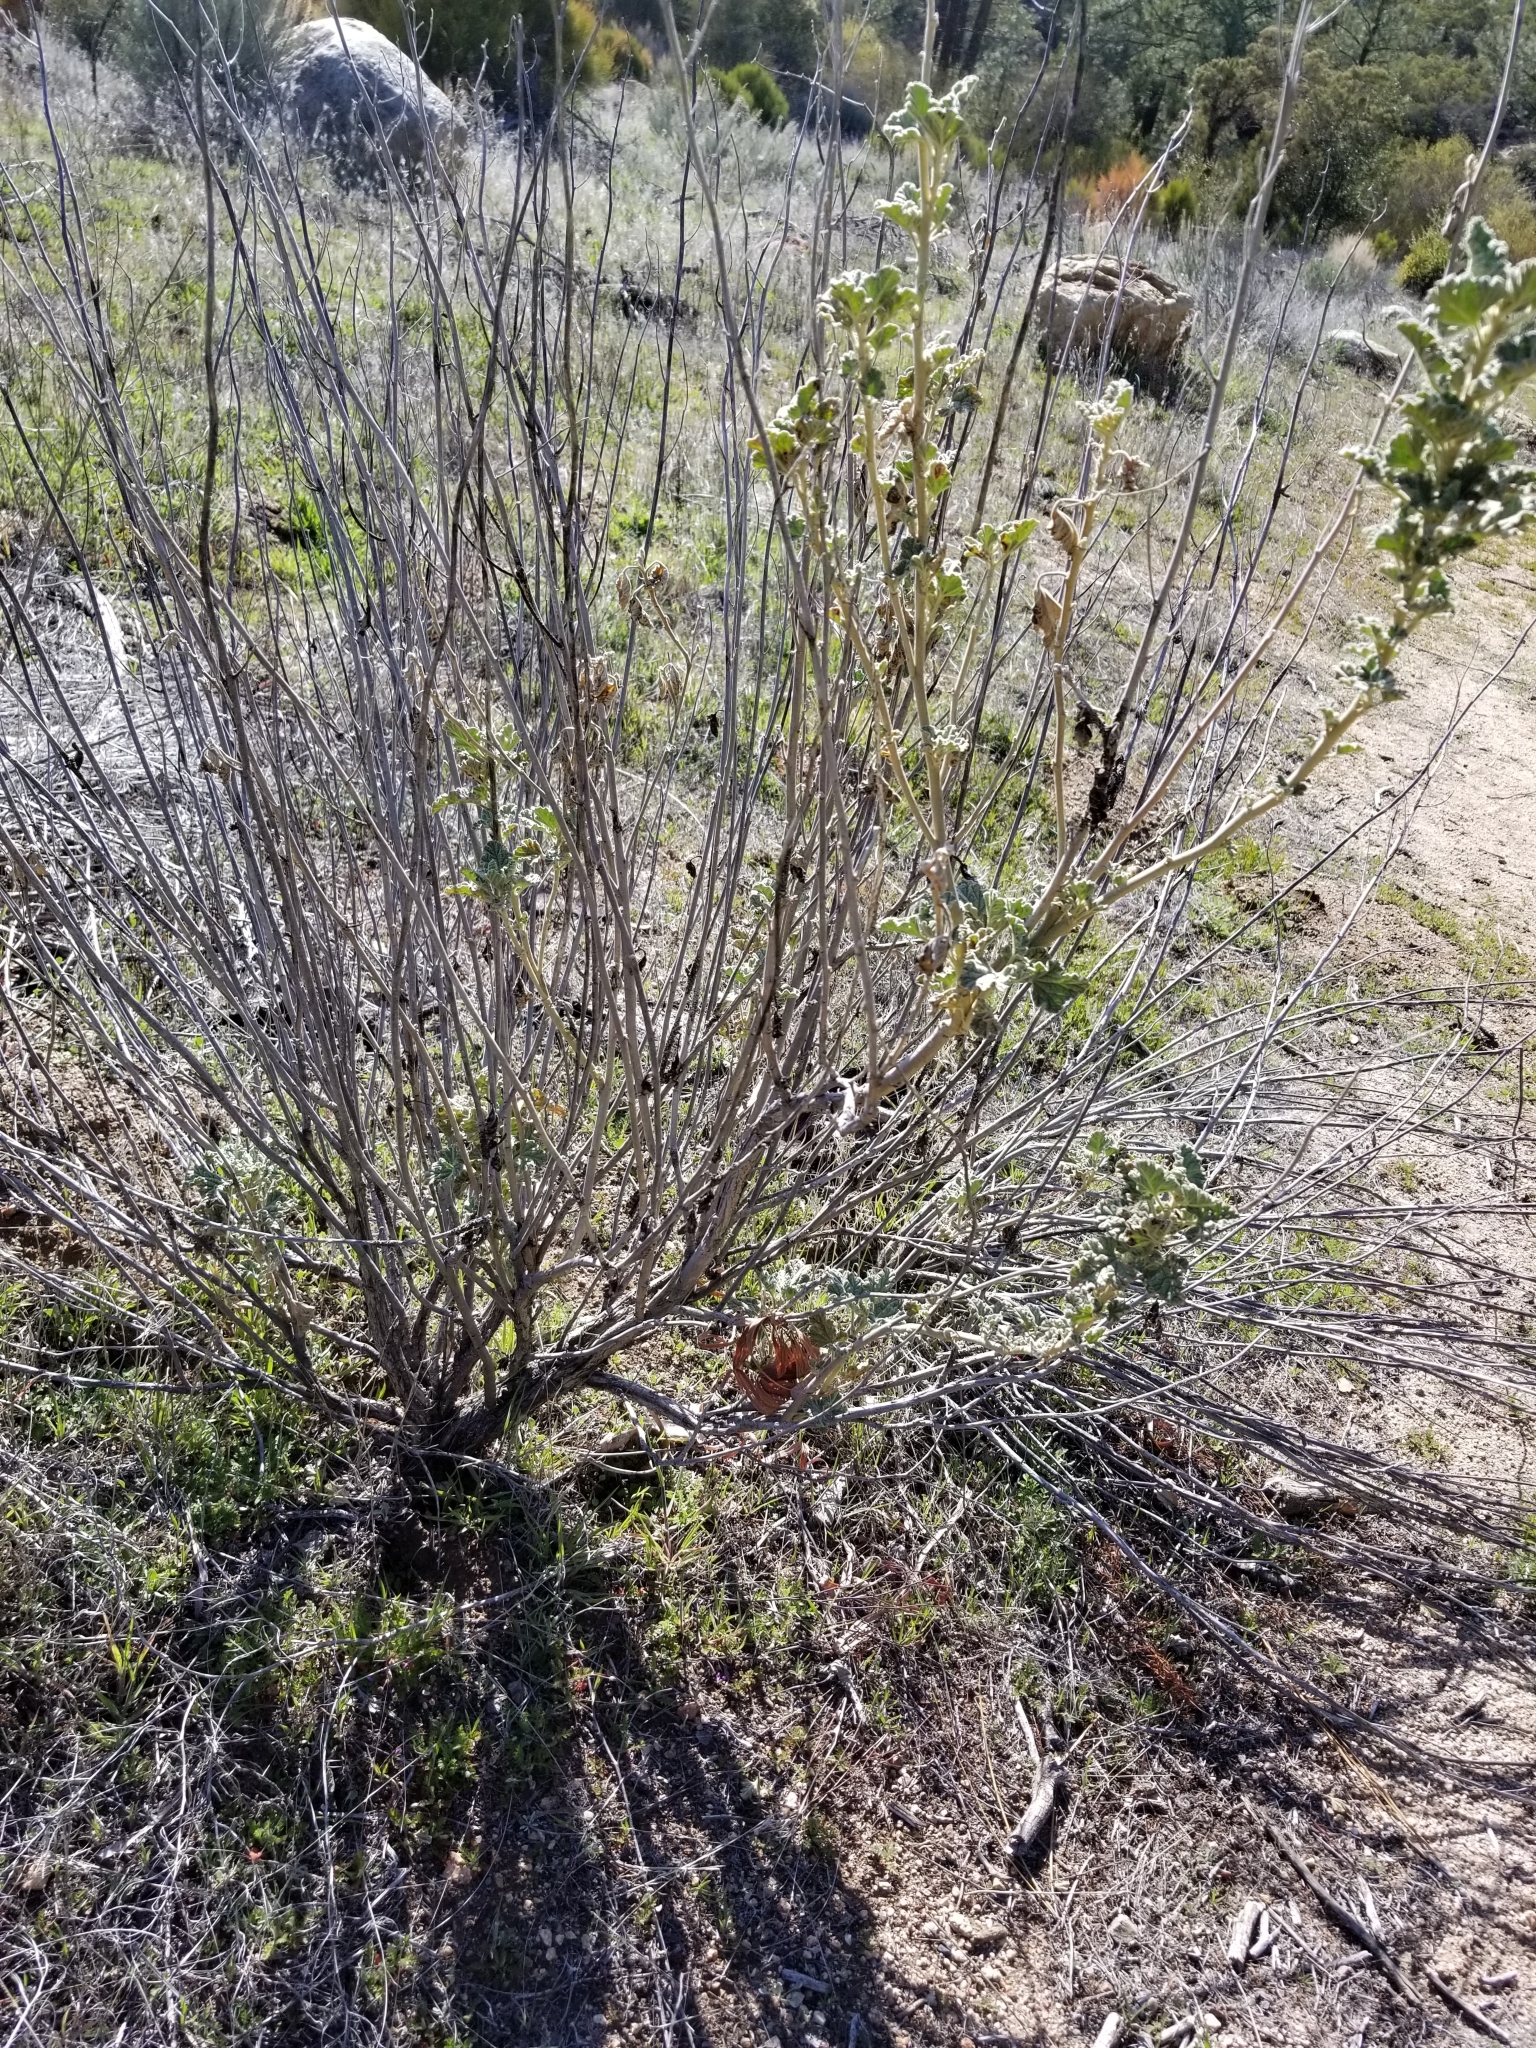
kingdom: Plantae
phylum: Tracheophyta
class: Magnoliopsida
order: Malvales
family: Malvaceae
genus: Sphaeralcea
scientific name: Sphaeralcea ambigua
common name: Apricot globe-mallow
